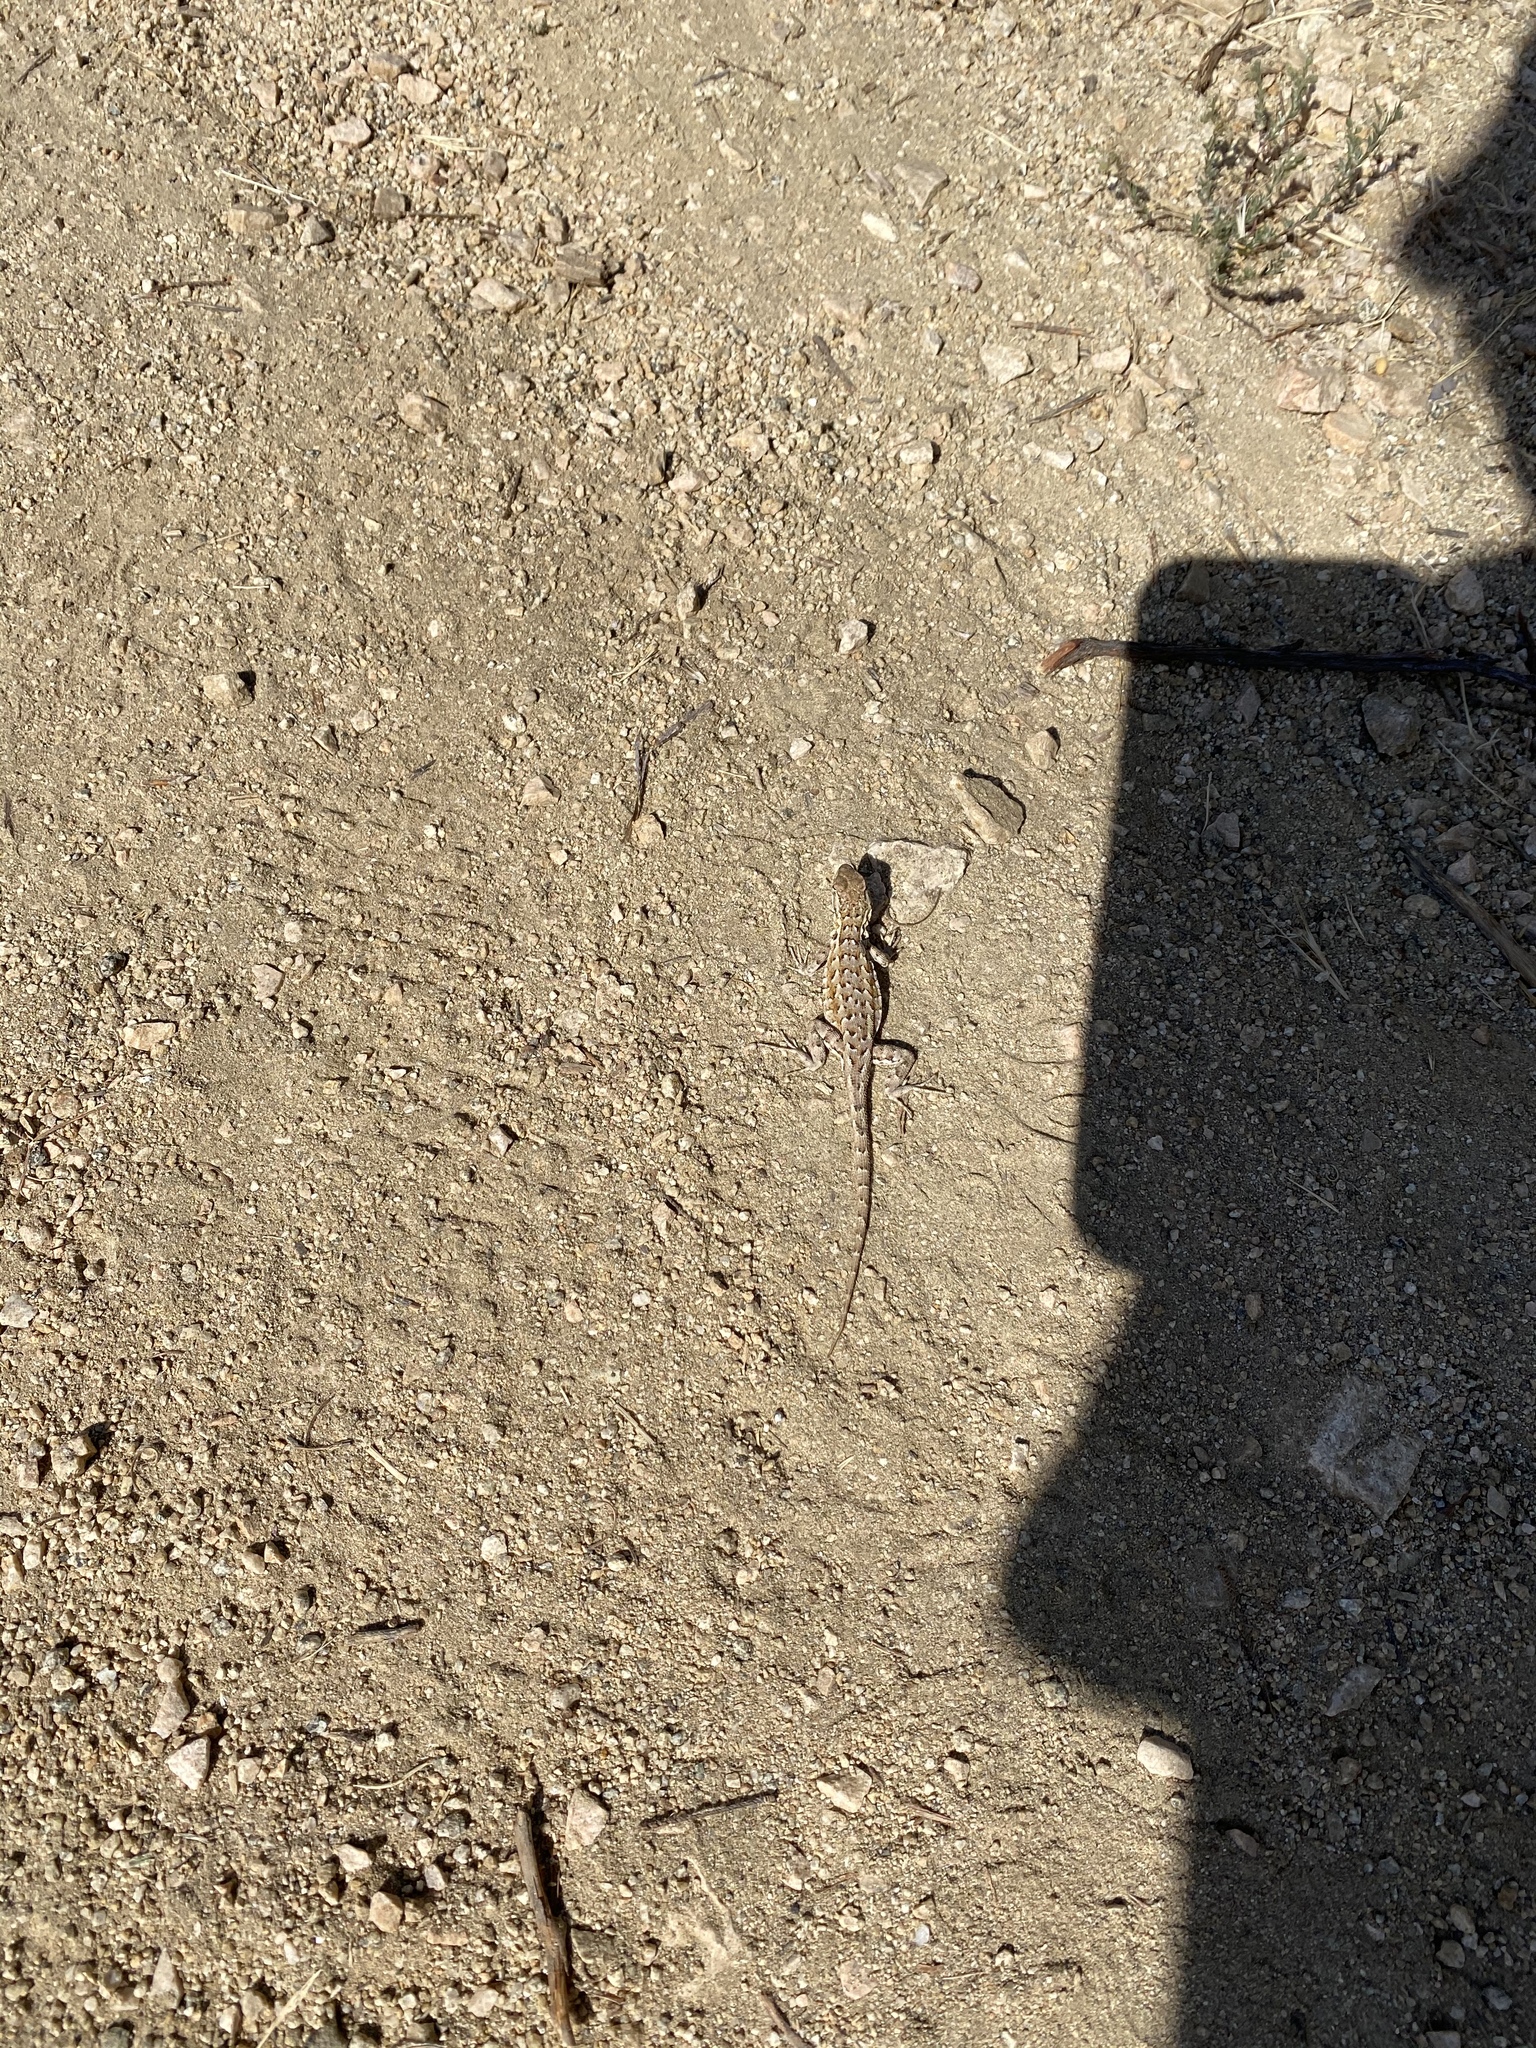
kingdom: Animalia
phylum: Chordata
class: Squamata
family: Phrynosomatidae
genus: Uta
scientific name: Uta stansburiana
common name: Side-blotched lizard
